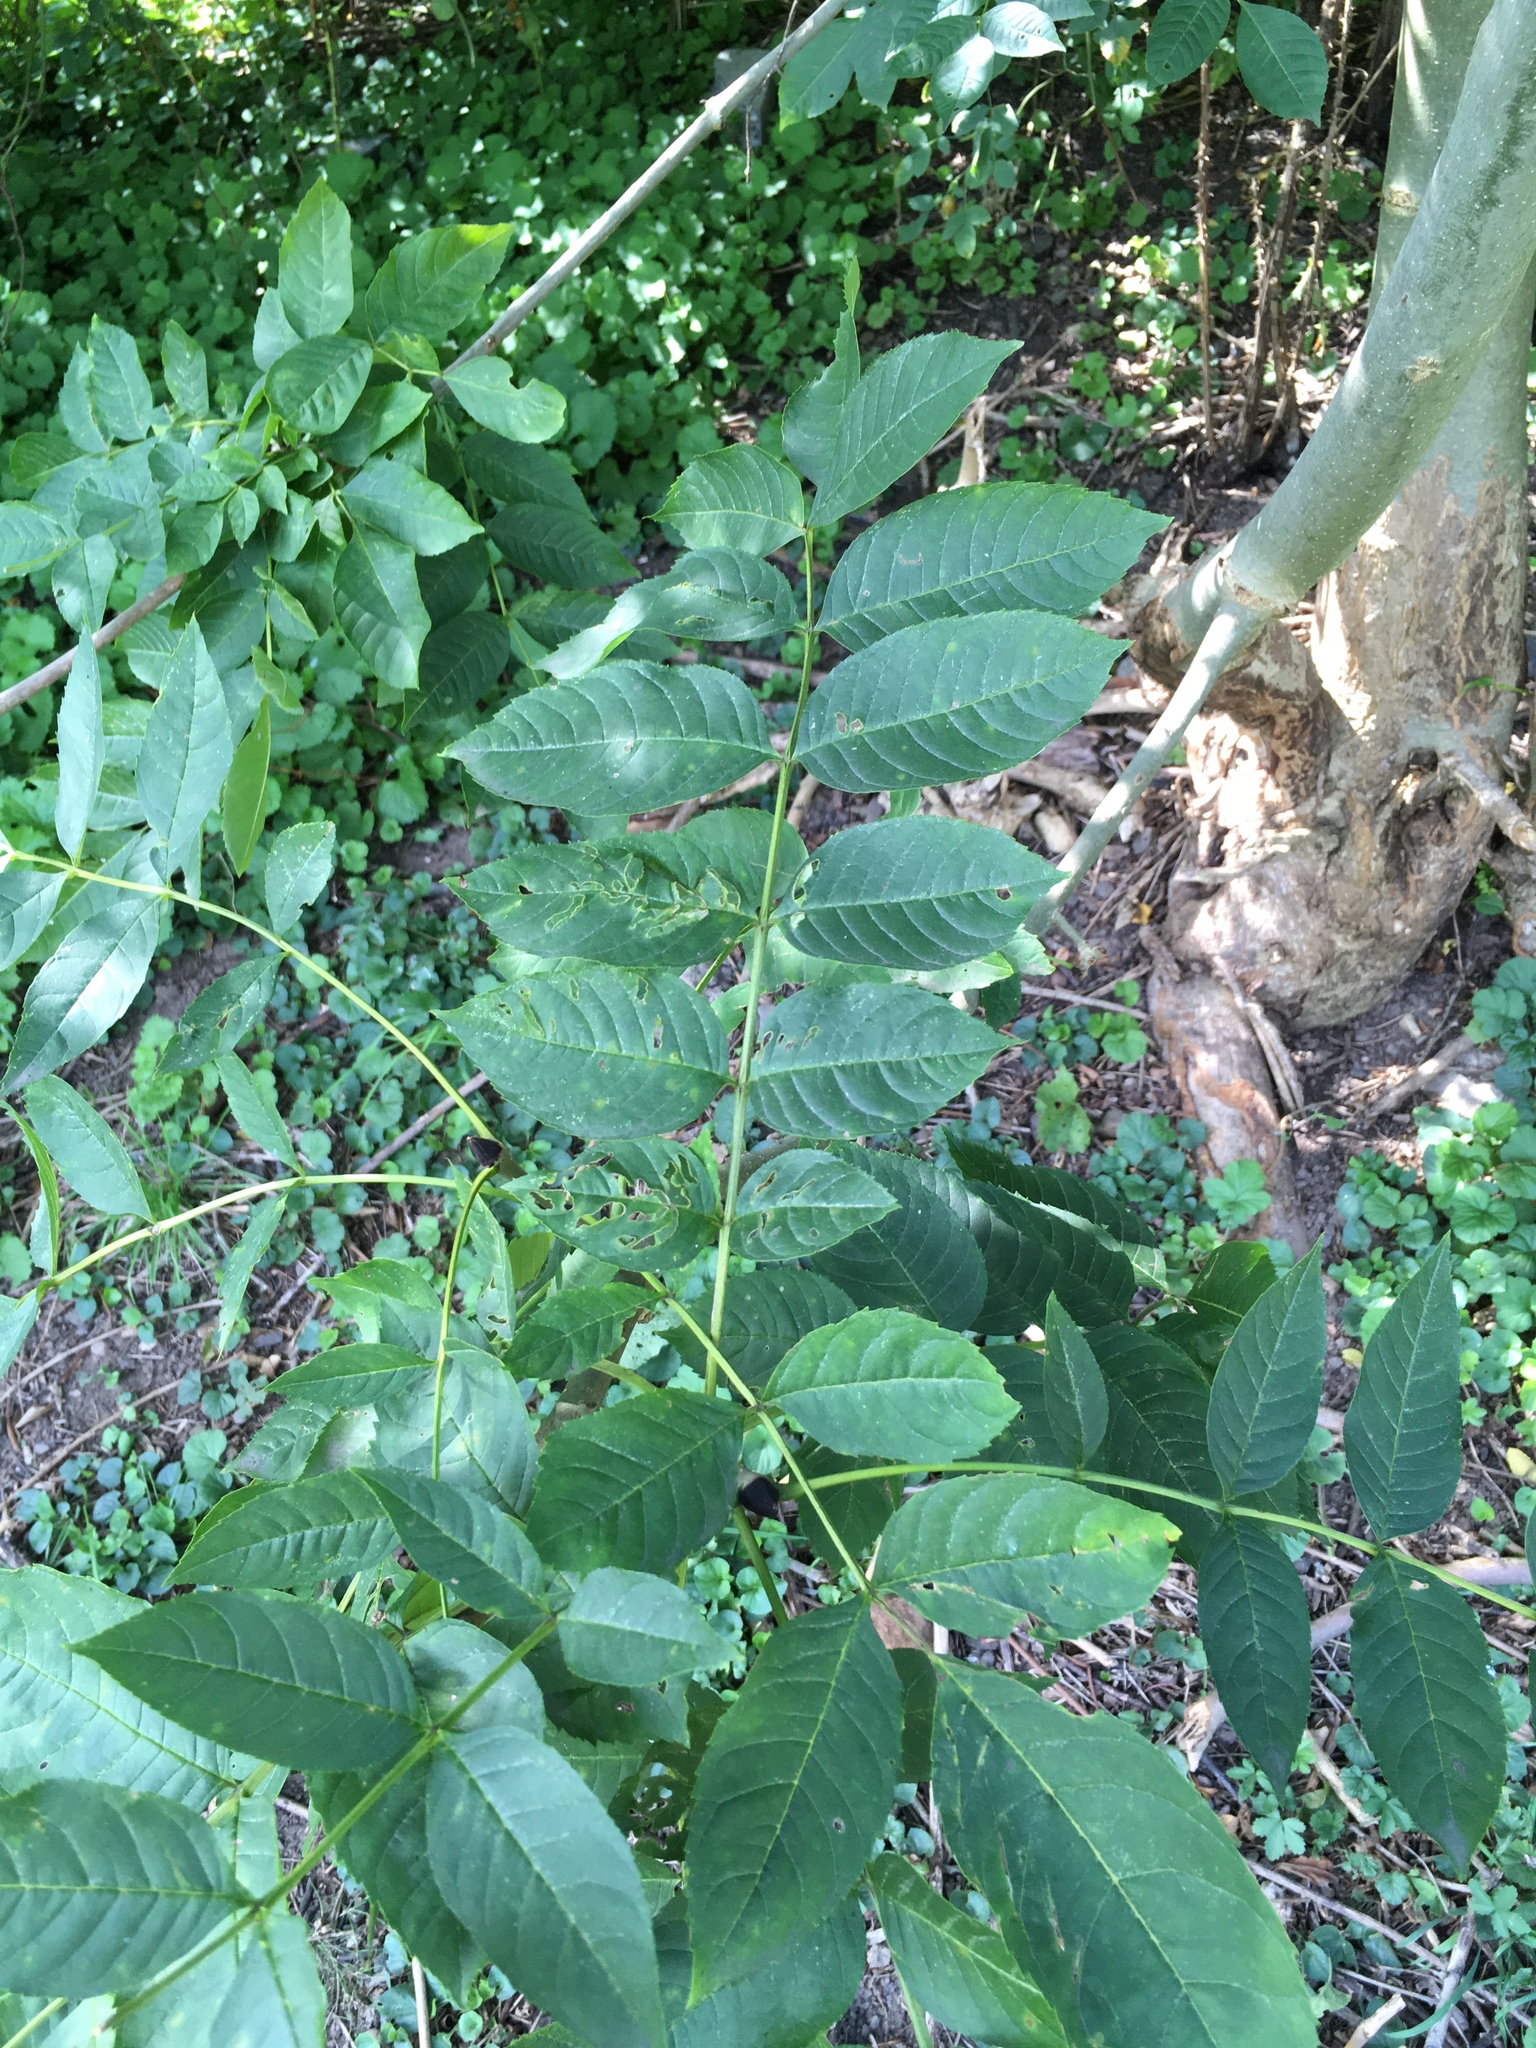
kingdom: Plantae
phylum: Tracheophyta
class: Magnoliopsida
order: Lamiales
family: Oleaceae
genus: Fraxinus
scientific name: Fraxinus excelsior
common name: European ash
